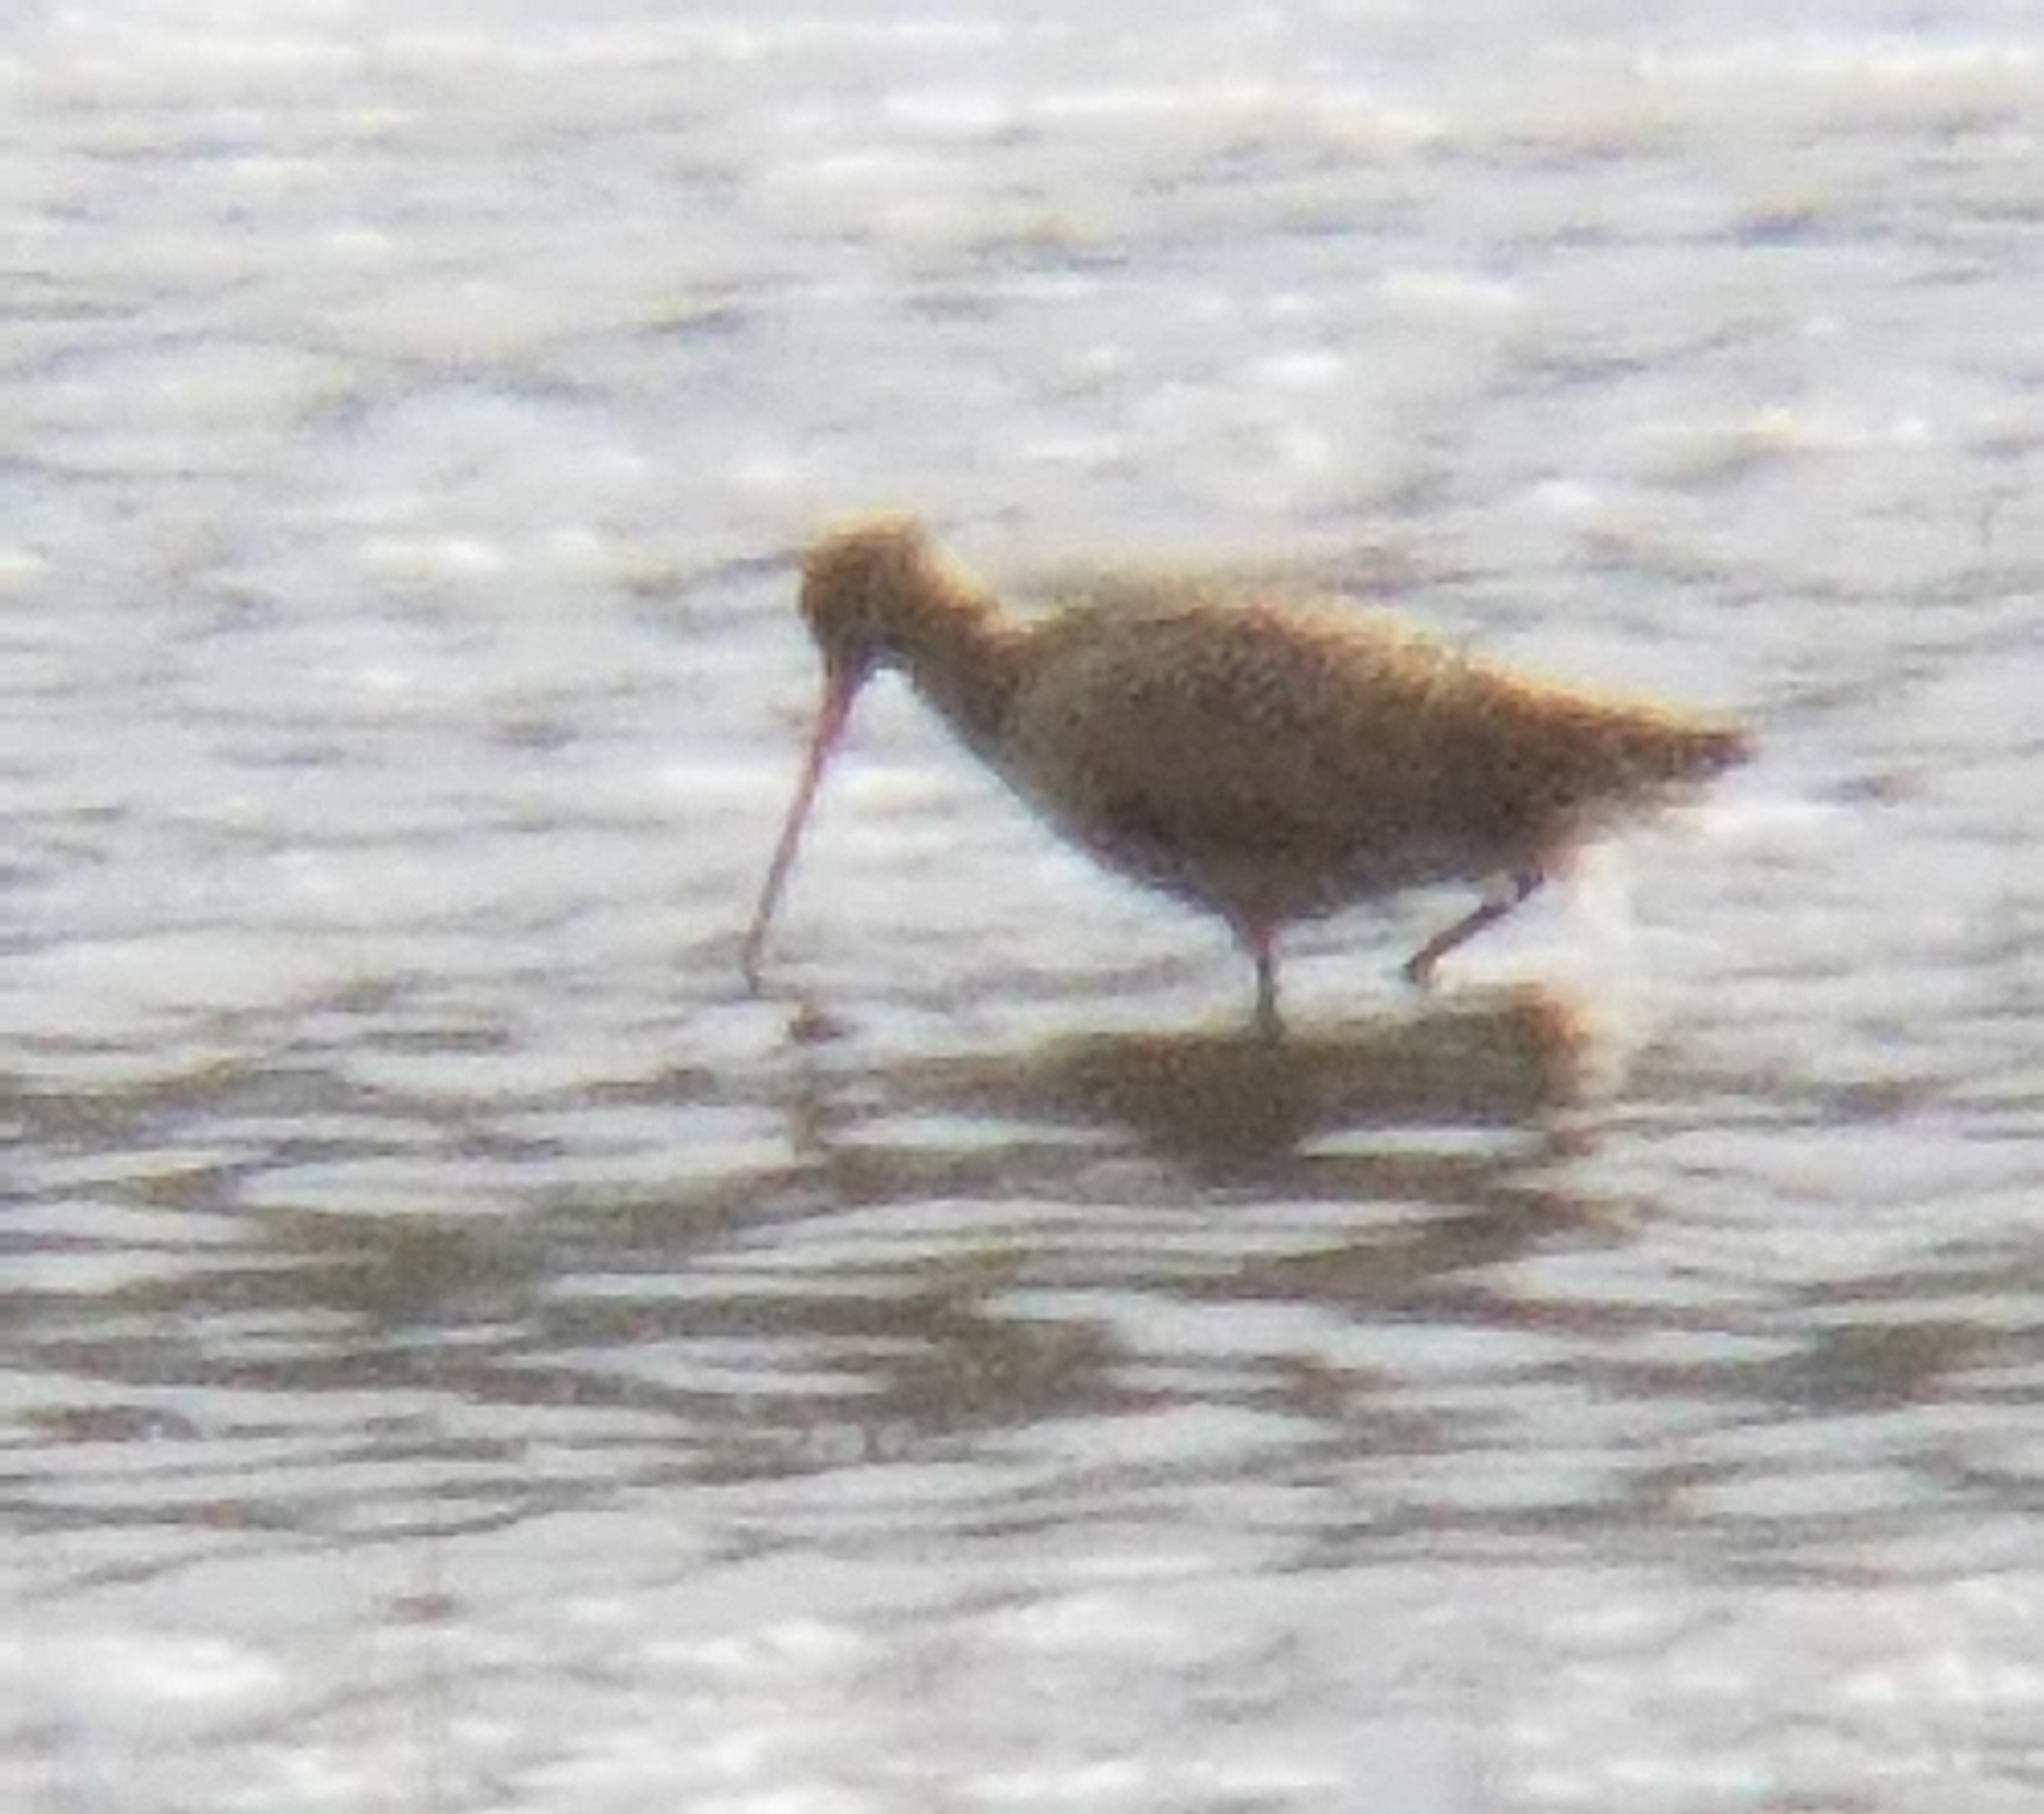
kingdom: Animalia
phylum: Chordata
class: Aves
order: Charadriiformes
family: Scolopacidae
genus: Limosa
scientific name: Limosa fedoa
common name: Marbled godwit
